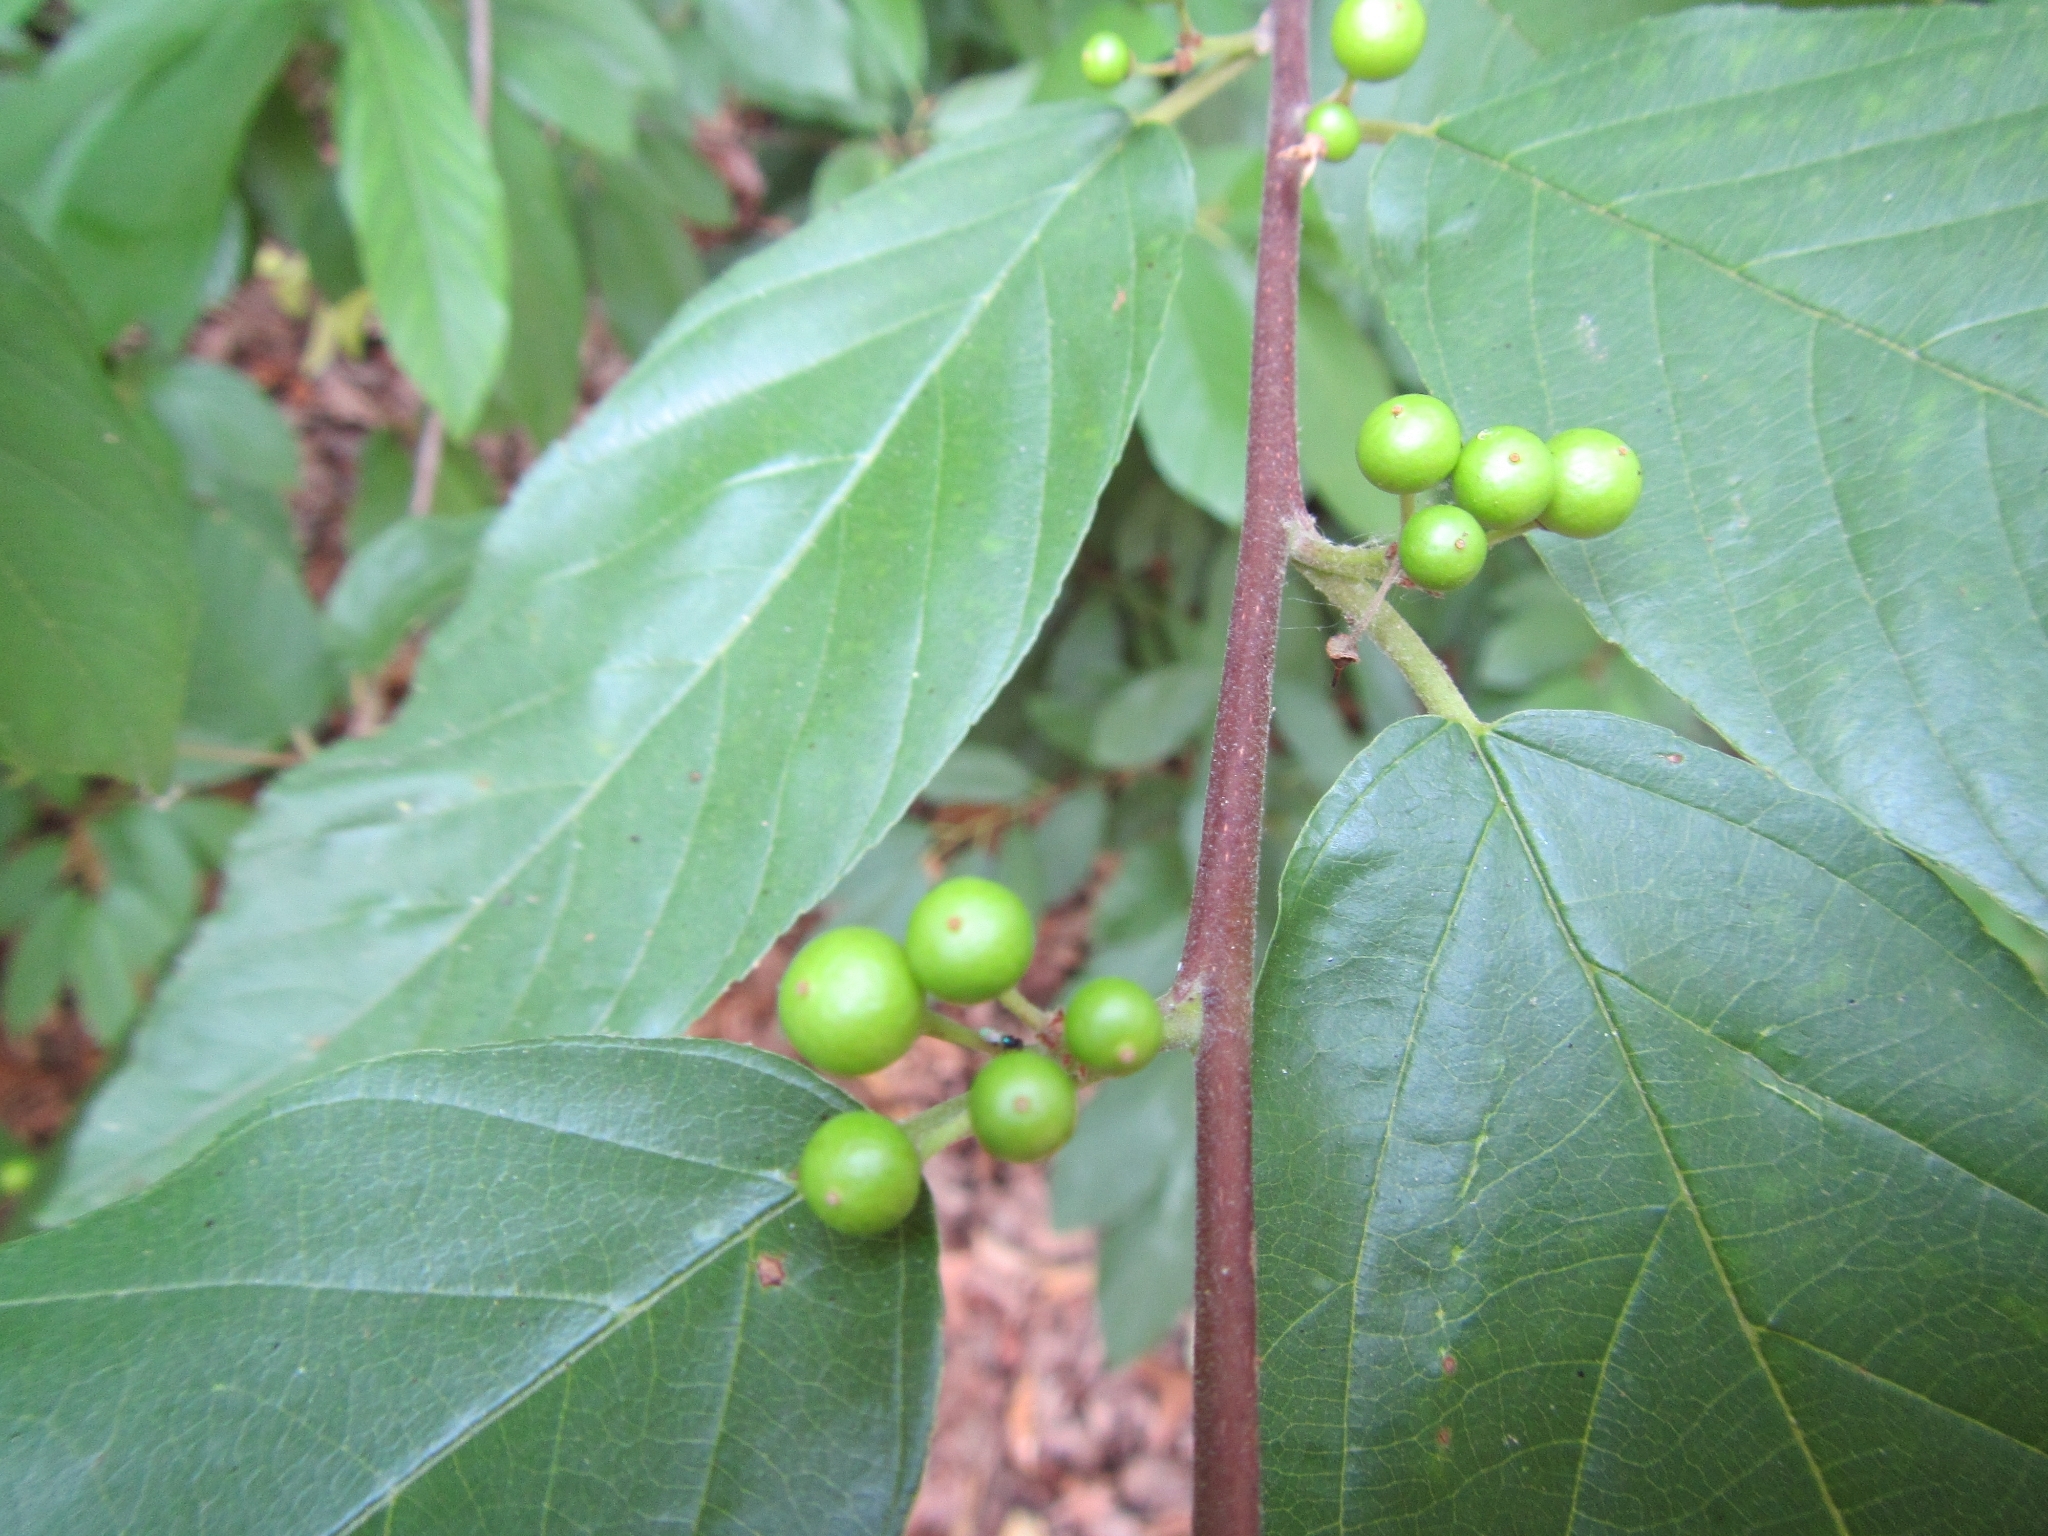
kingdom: Plantae
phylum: Tracheophyta
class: Magnoliopsida
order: Rosales
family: Rhamnaceae
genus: Frangula
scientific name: Frangula caroliniana
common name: Carolina buckthorn
